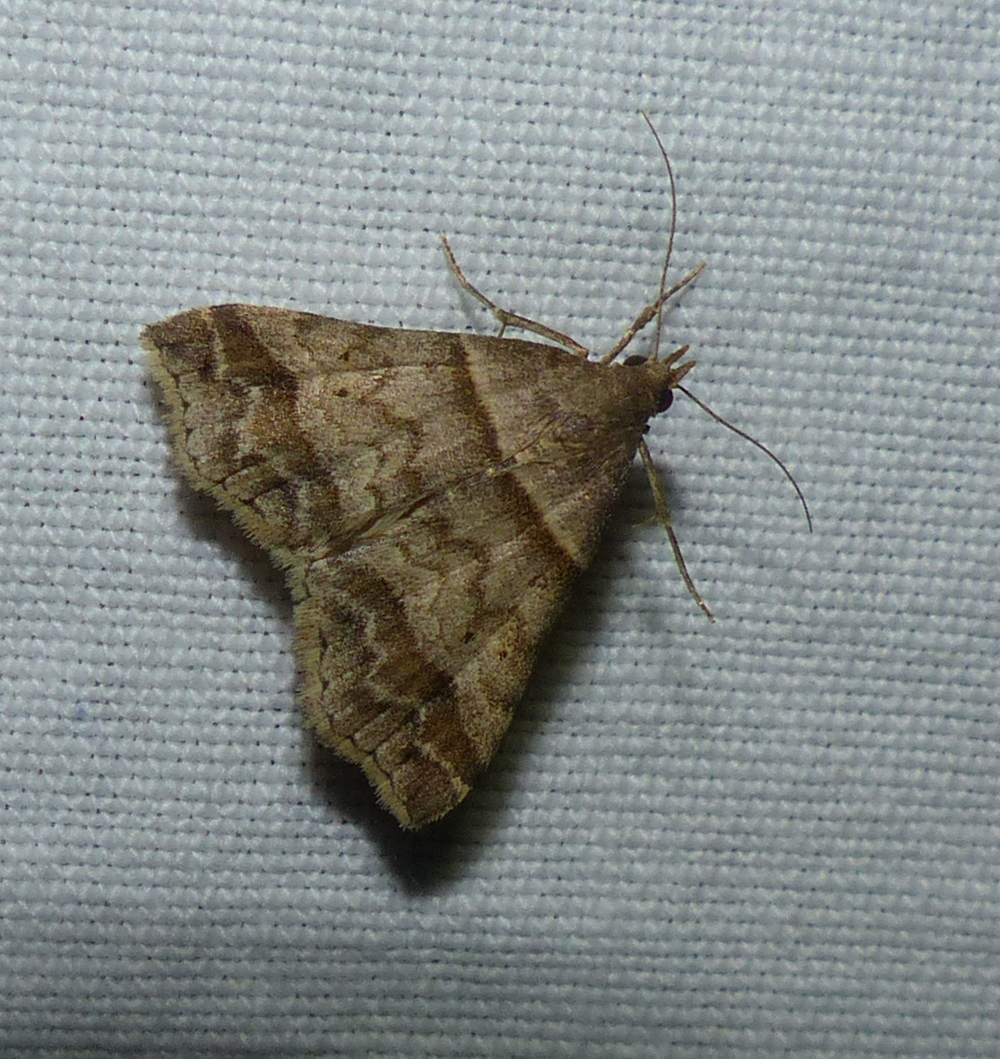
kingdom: Animalia
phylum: Arthropoda
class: Insecta
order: Lepidoptera
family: Erebidae
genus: Phaeolita
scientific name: Phaeolita pyramusalis
